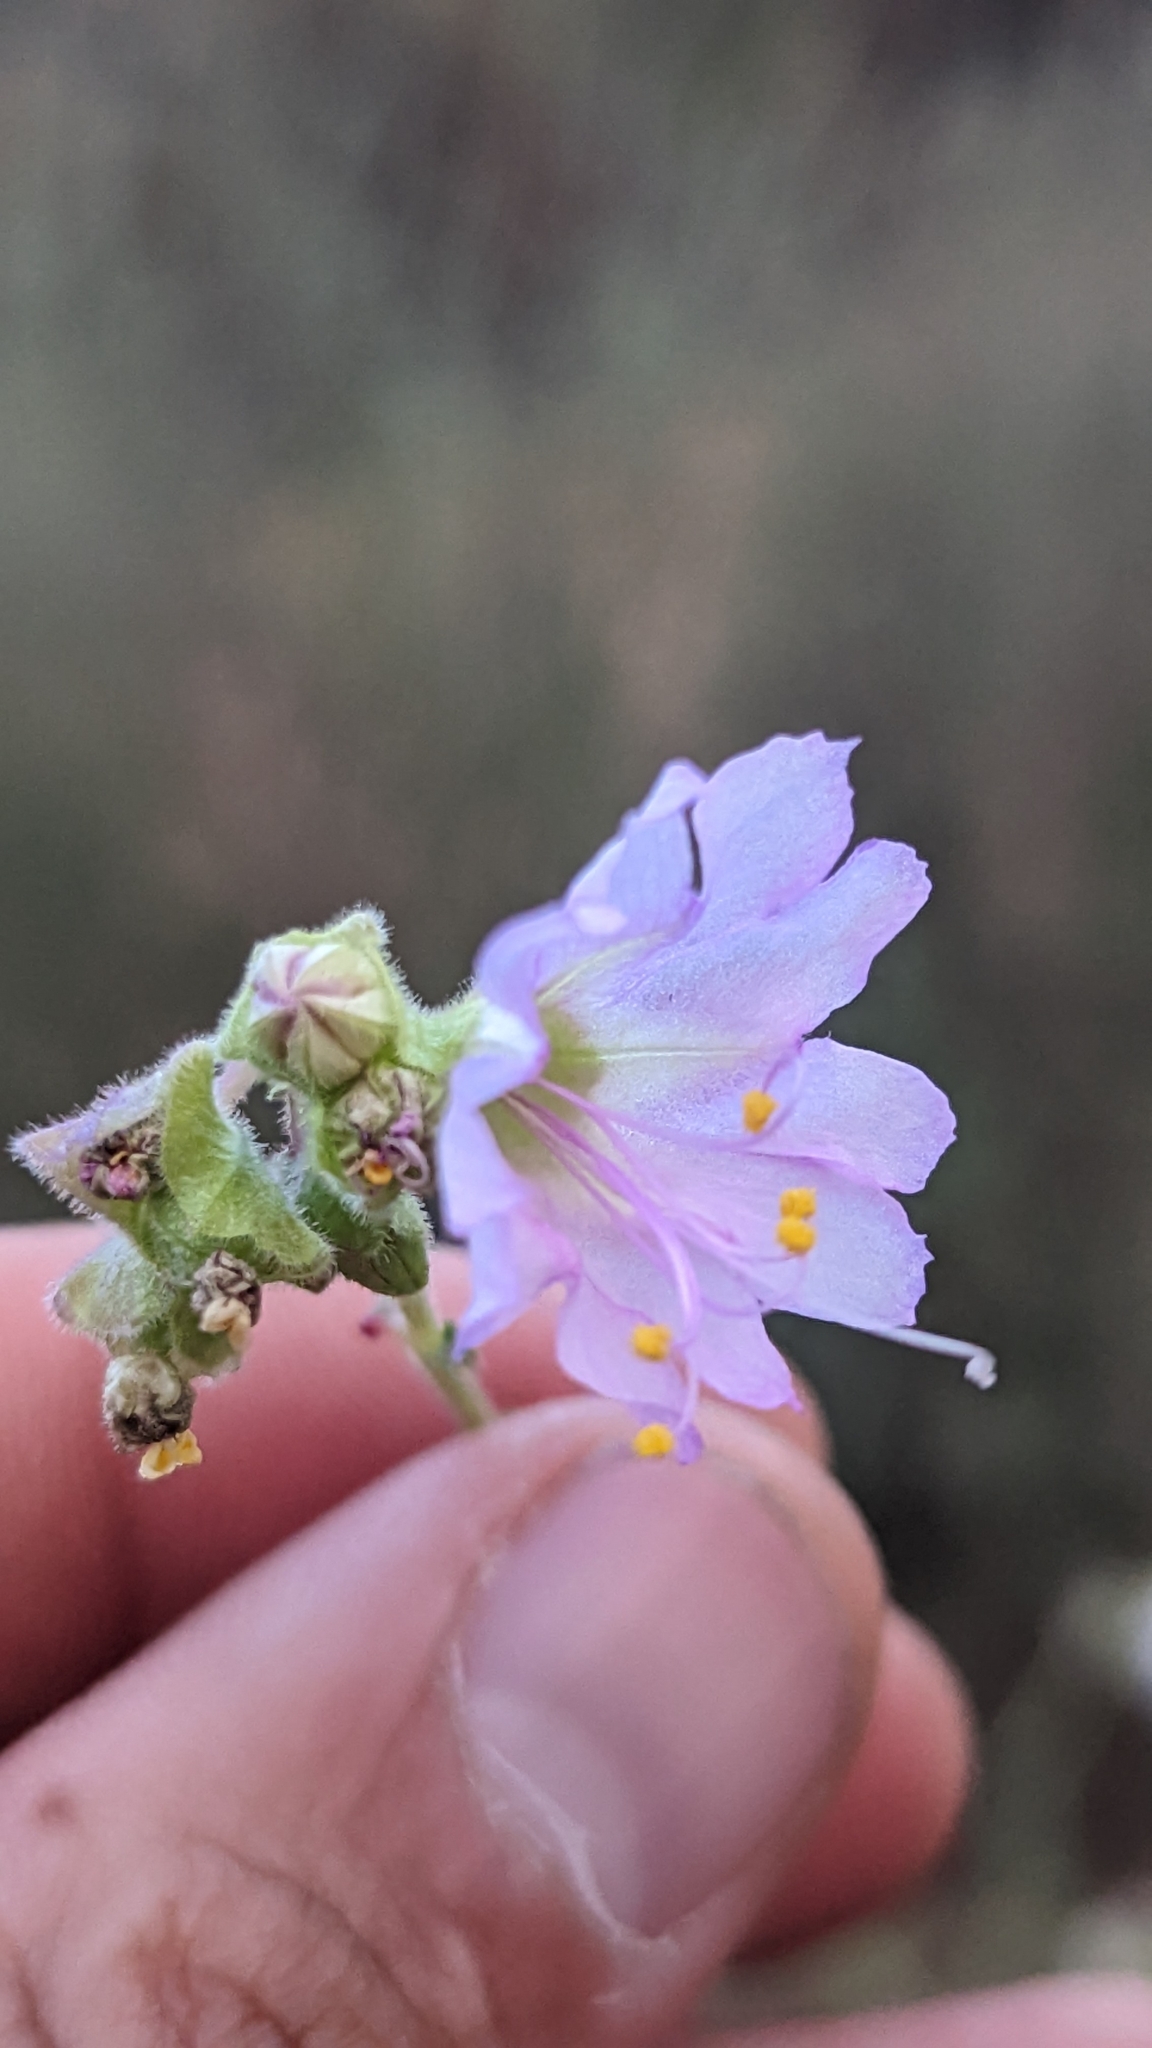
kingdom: Plantae
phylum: Tracheophyta
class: Magnoliopsida
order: Caryophyllales
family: Nyctaginaceae
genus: Mirabilis
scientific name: Mirabilis linearis
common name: Linear-leaved four-o'clock
